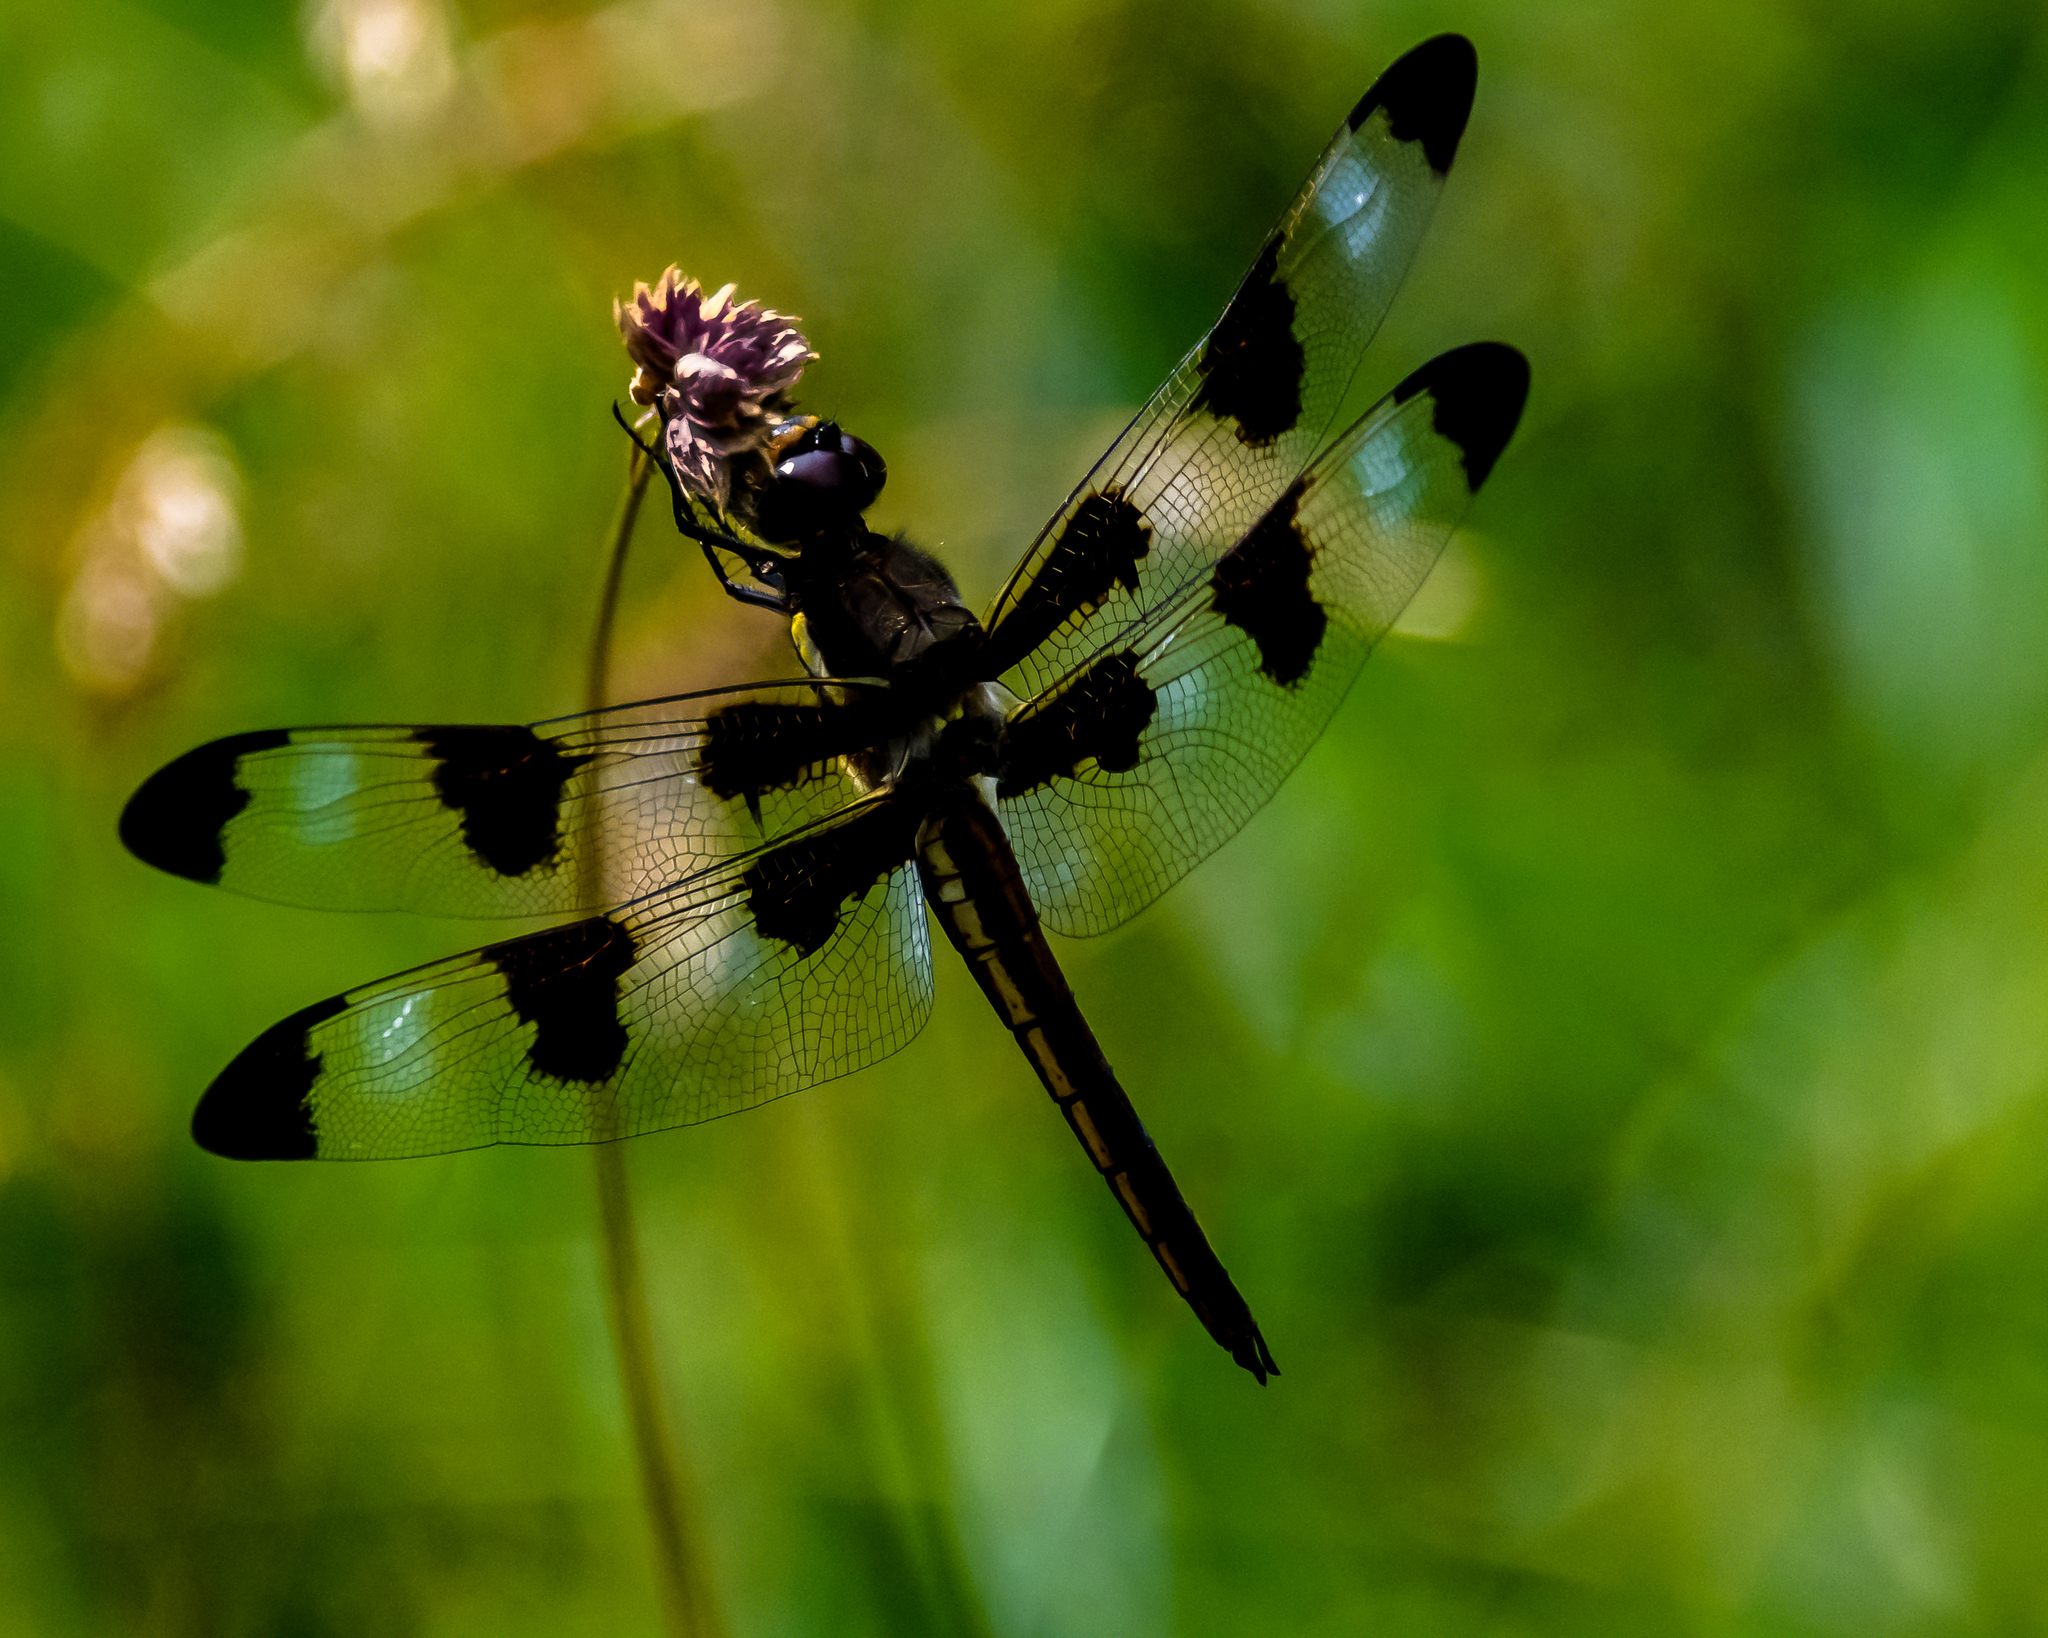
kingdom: Animalia
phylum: Arthropoda
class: Insecta
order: Odonata
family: Libellulidae
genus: Libellula
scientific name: Libellula pulchella
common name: Twelve-spotted skimmer
